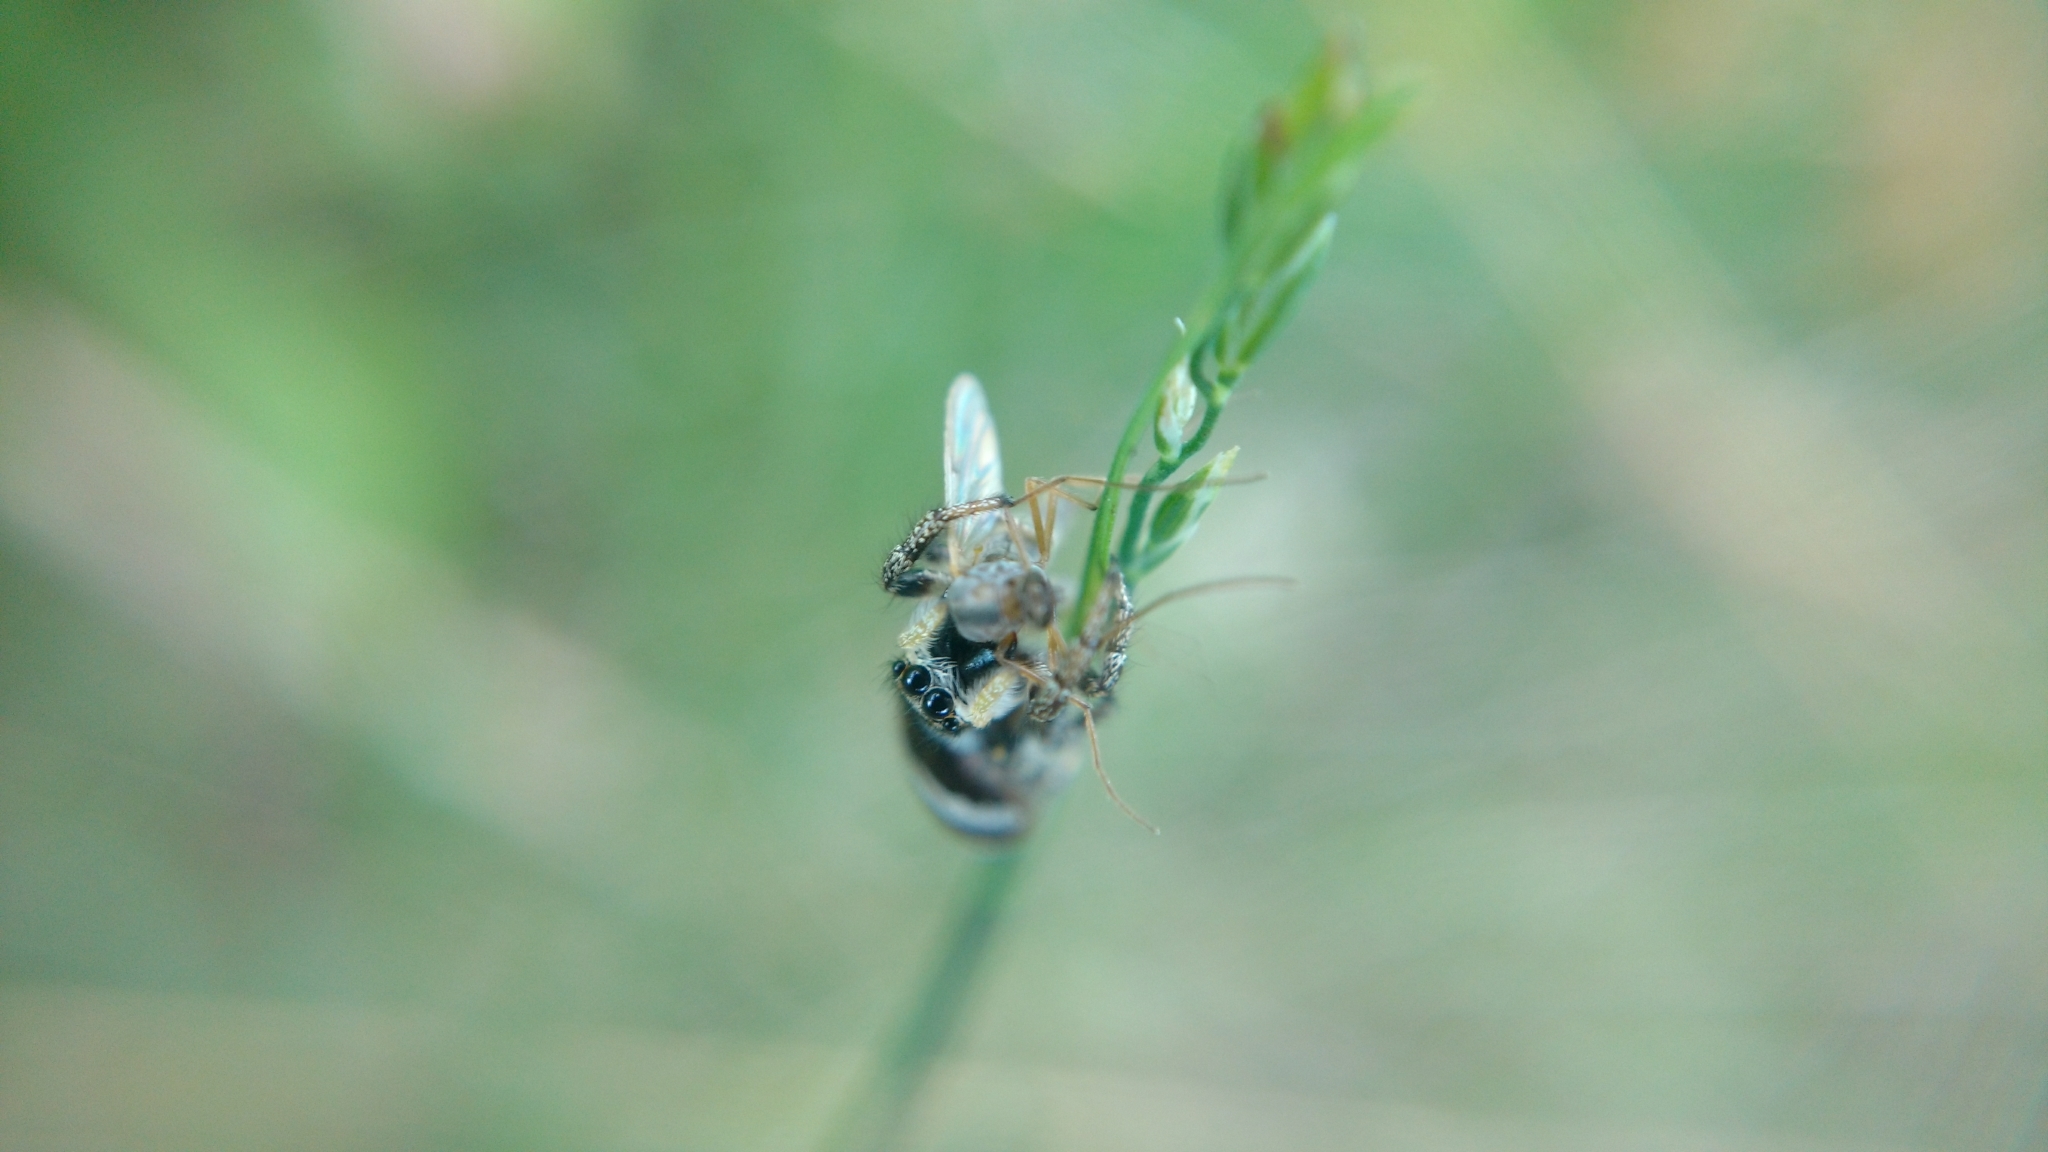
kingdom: Animalia
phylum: Arthropoda
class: Arachnida
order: Araneae
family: Salticidae
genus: Salticus
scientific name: Salticus scenicus
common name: Zebra jumper
